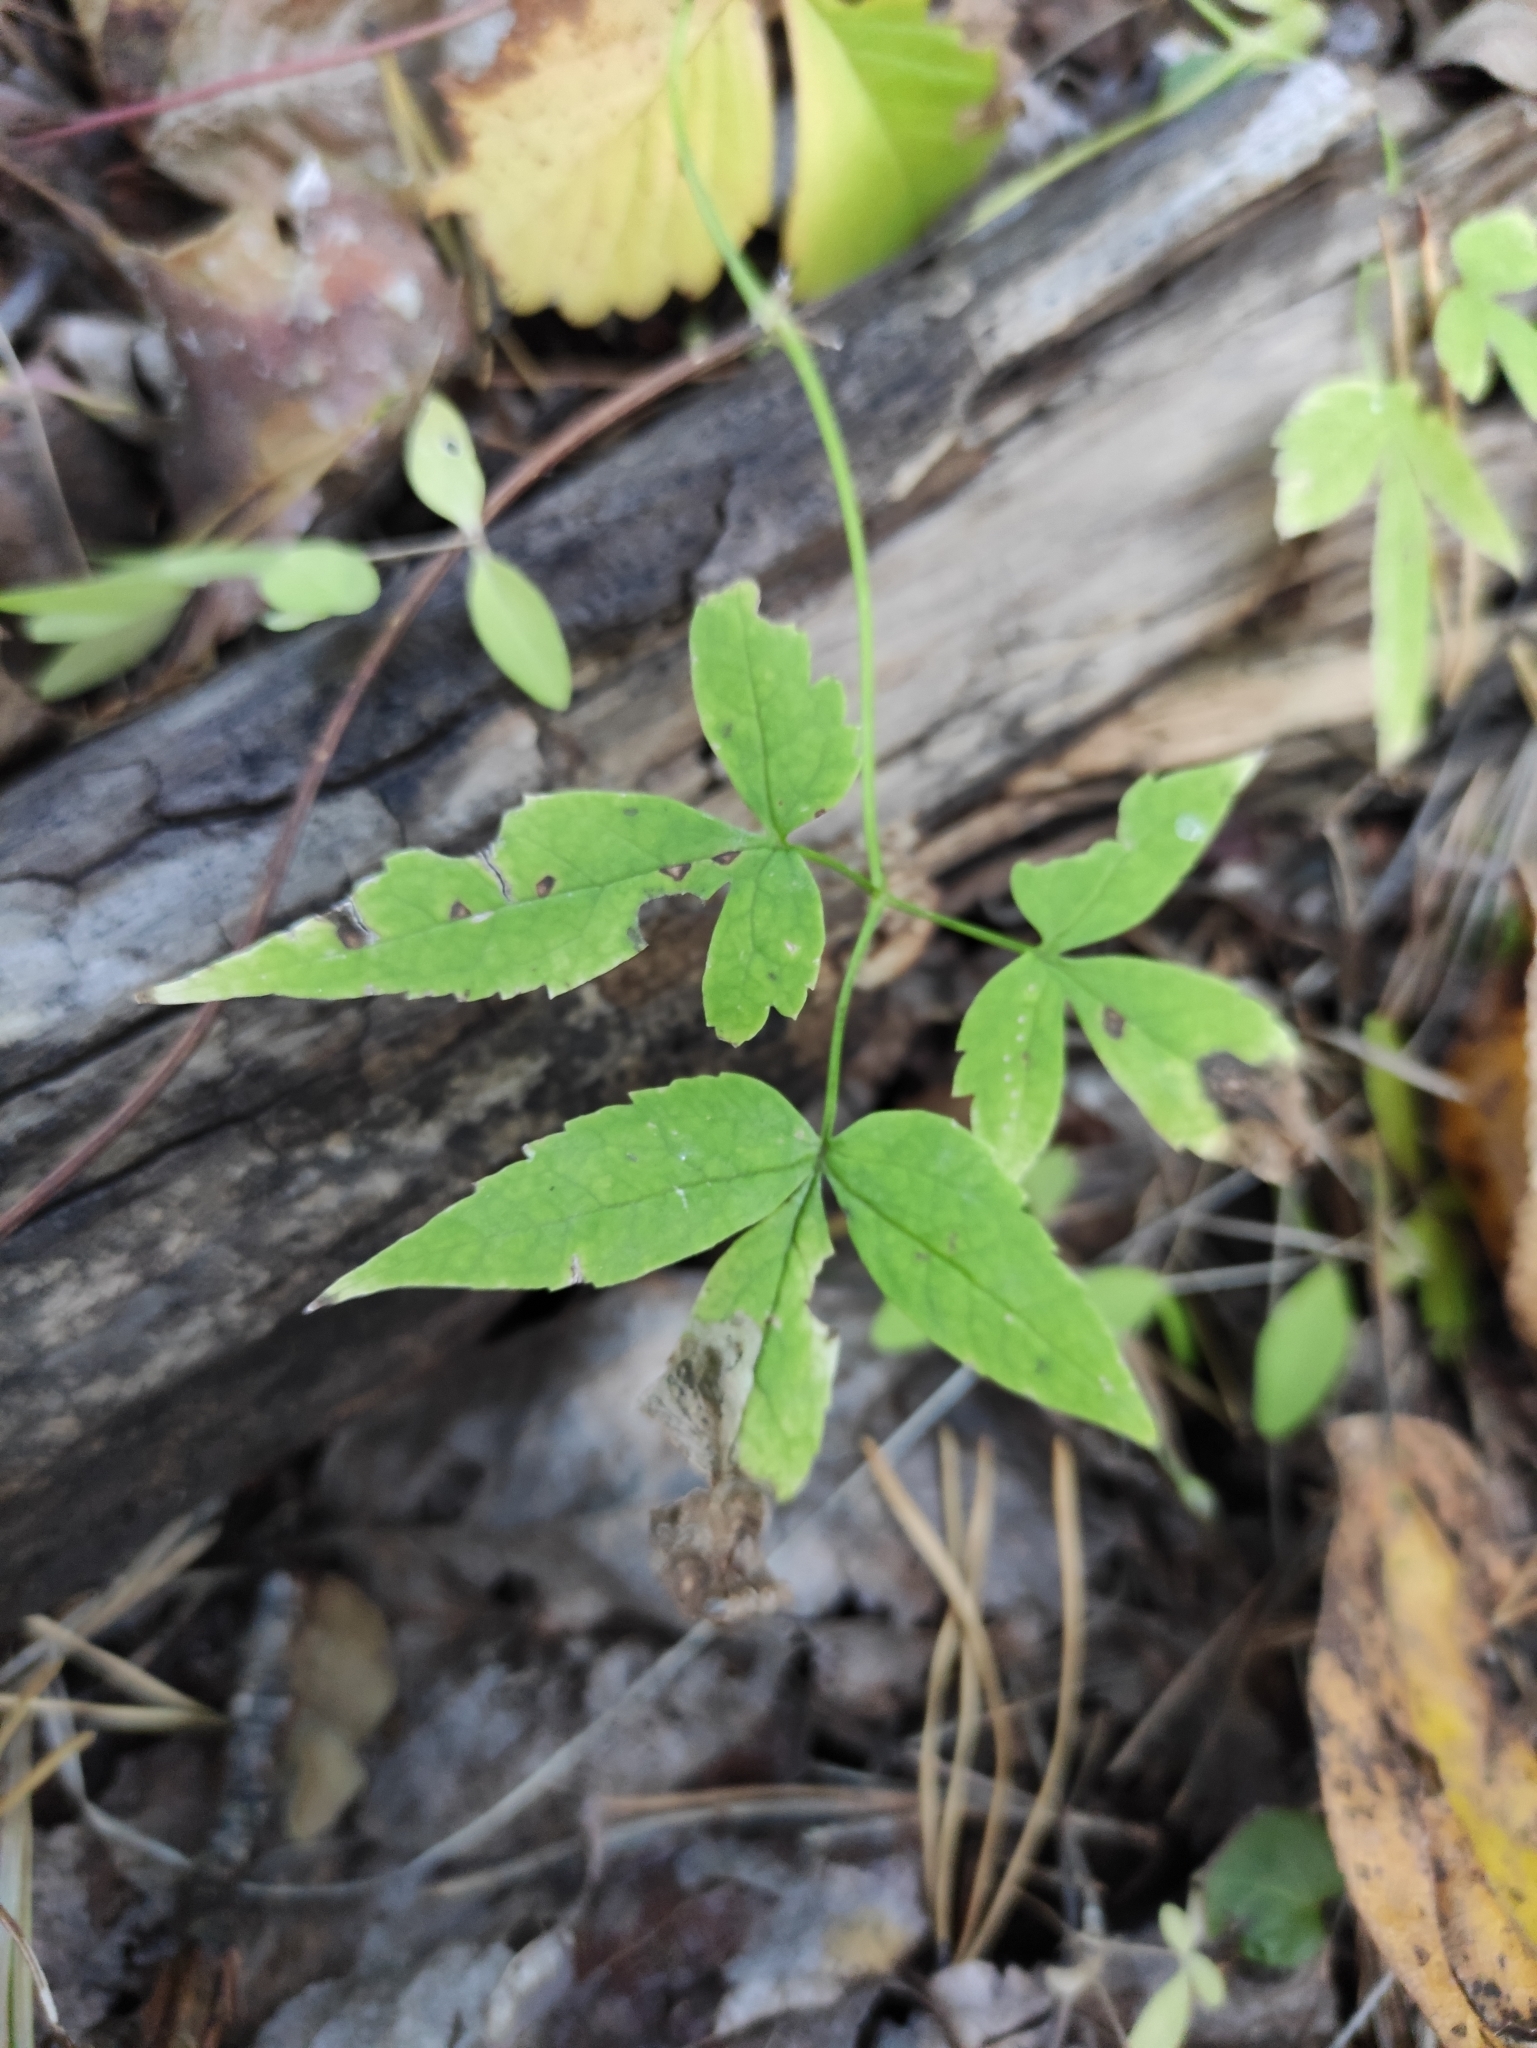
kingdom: Plantae
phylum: Tracheophyta
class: Magnoliopsida
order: Ranunculales
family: Ranunculaceae
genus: Clematis
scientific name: Clematis sibirica
